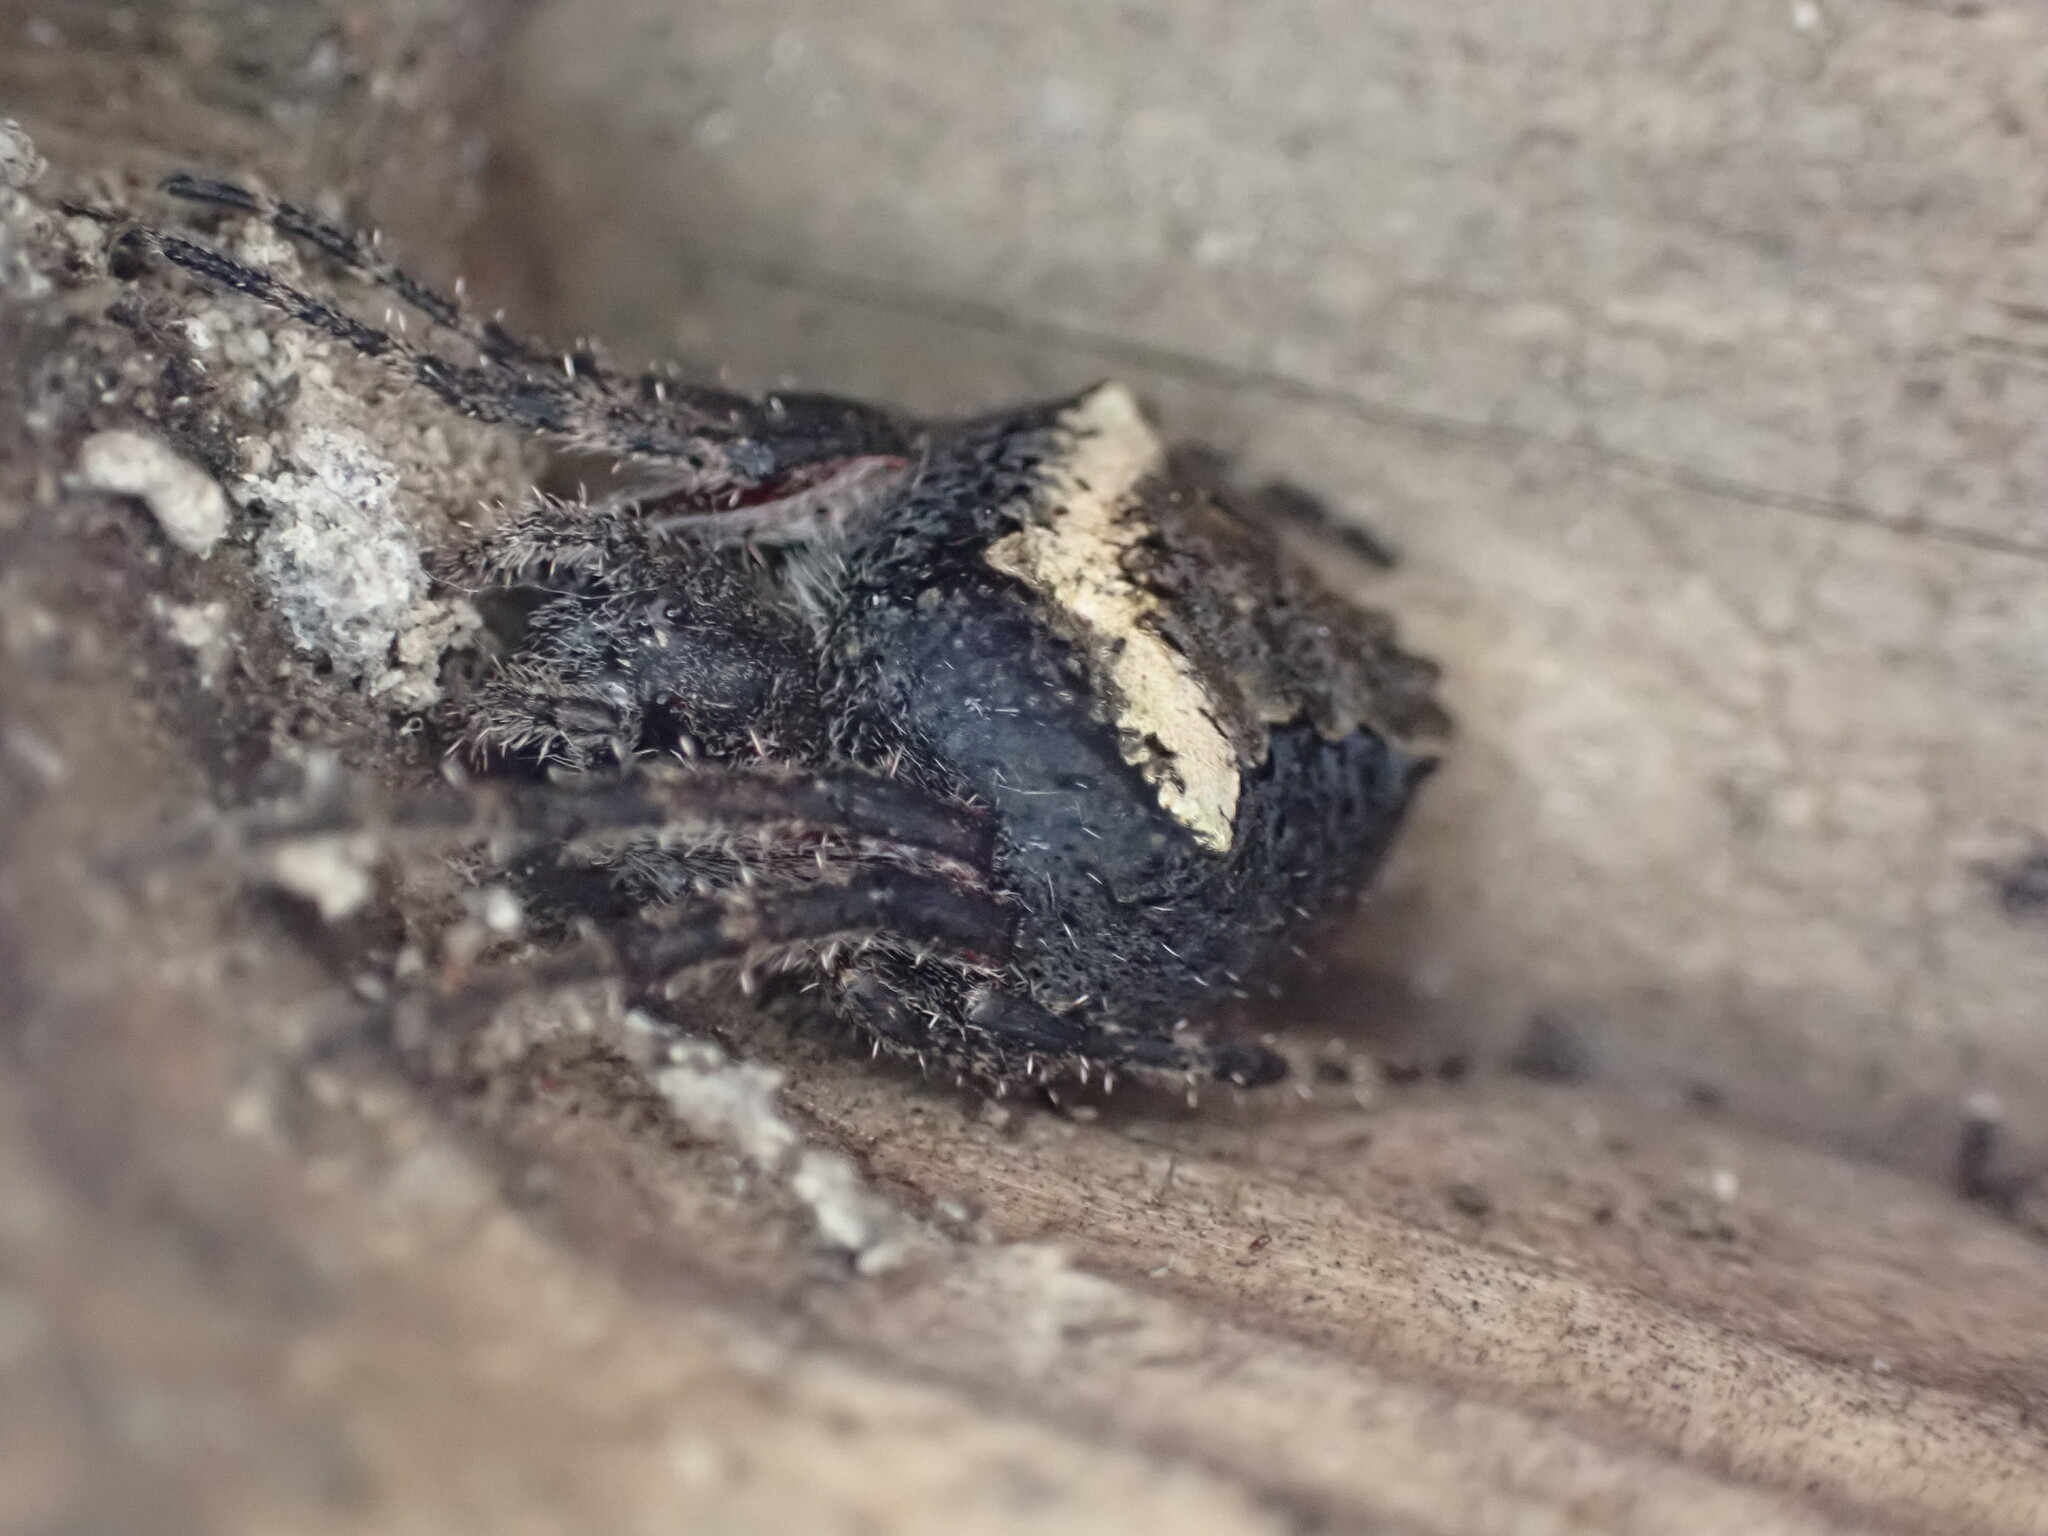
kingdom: Animalia
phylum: Arthropoda
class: Arachnida
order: Araneae
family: Araneidae
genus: Eriophora
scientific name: Eriophora pustulosa
